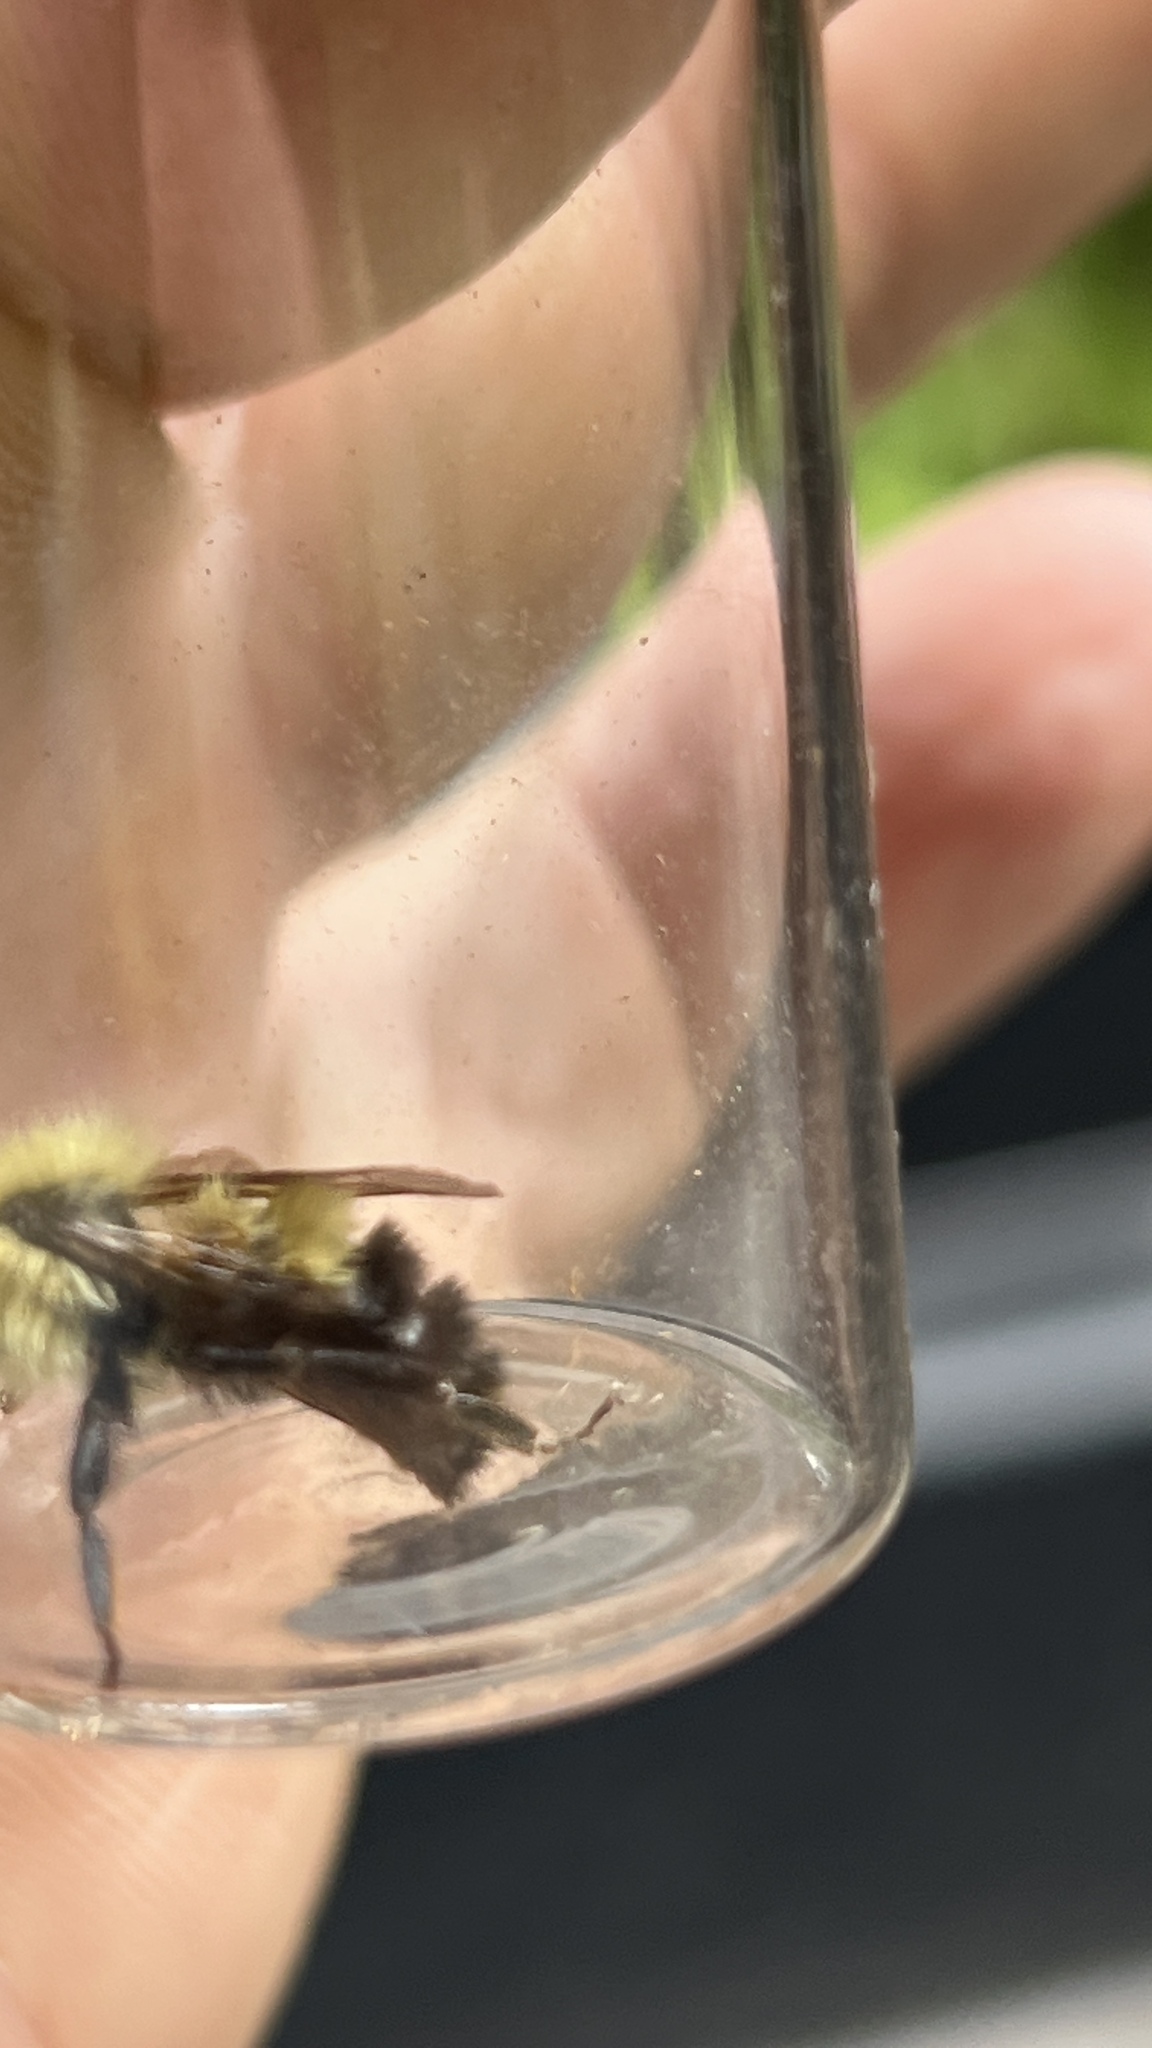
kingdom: Animalia
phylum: Arthropoda
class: Insecta
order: Hymenoptera
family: Apidae
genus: Pyrobombus
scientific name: Pyrobombus
